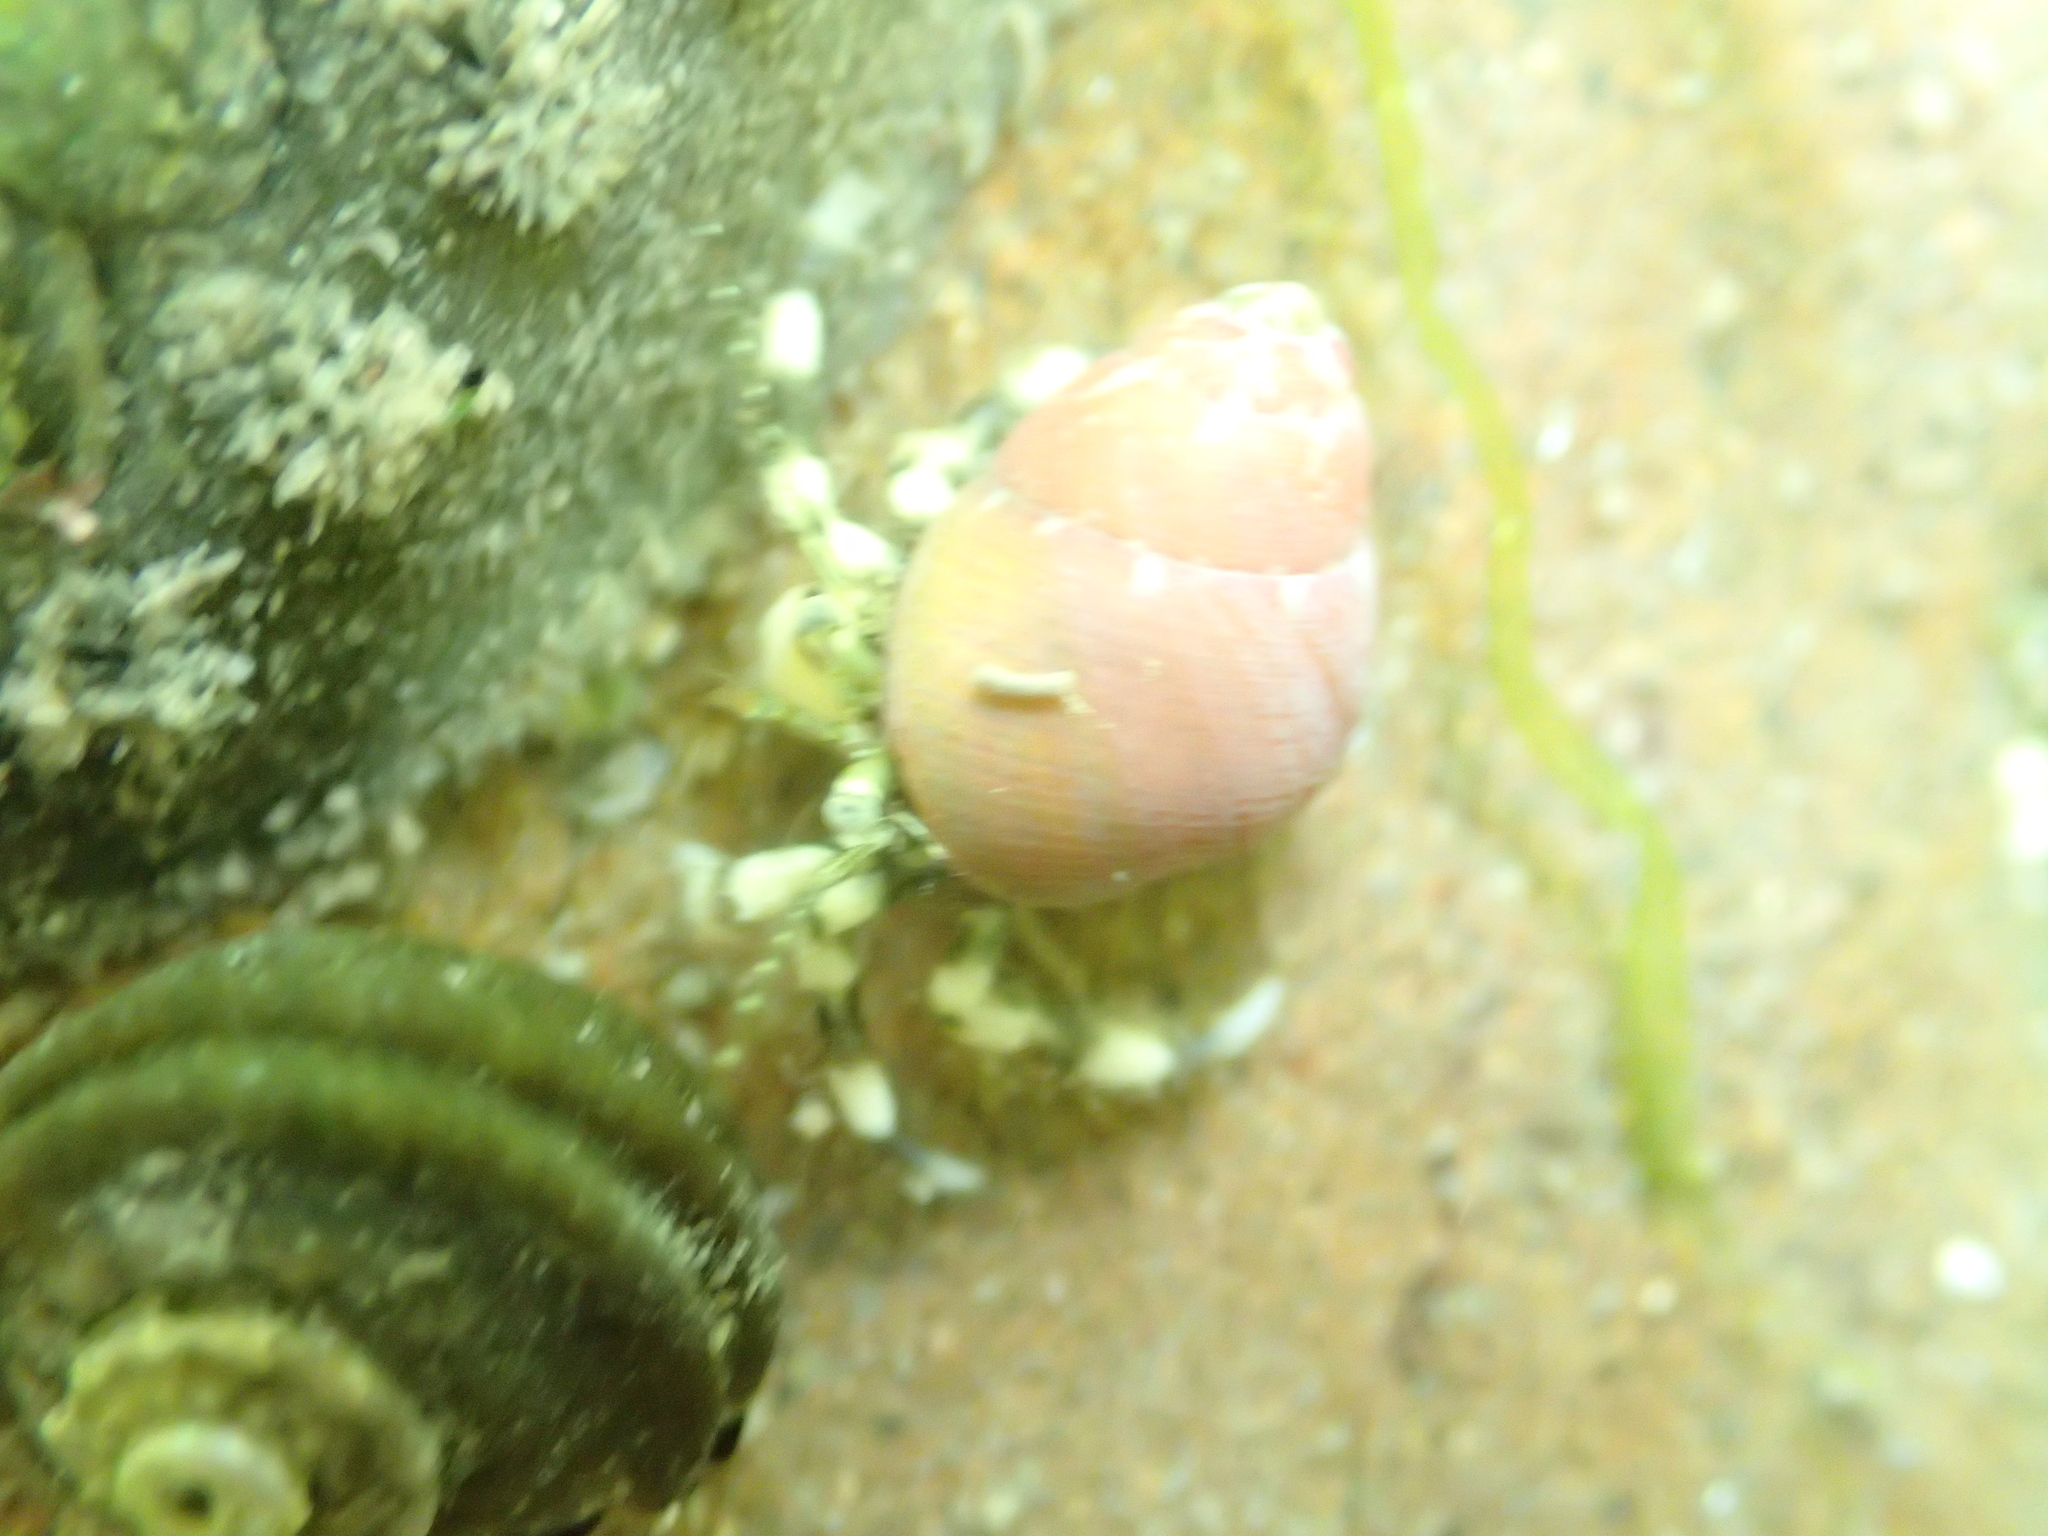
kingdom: Animalia
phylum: Arthropoda
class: Malacostraca
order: Decapoda
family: Paguridae
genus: Pagurus
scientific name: Pagurus novizealandiae
